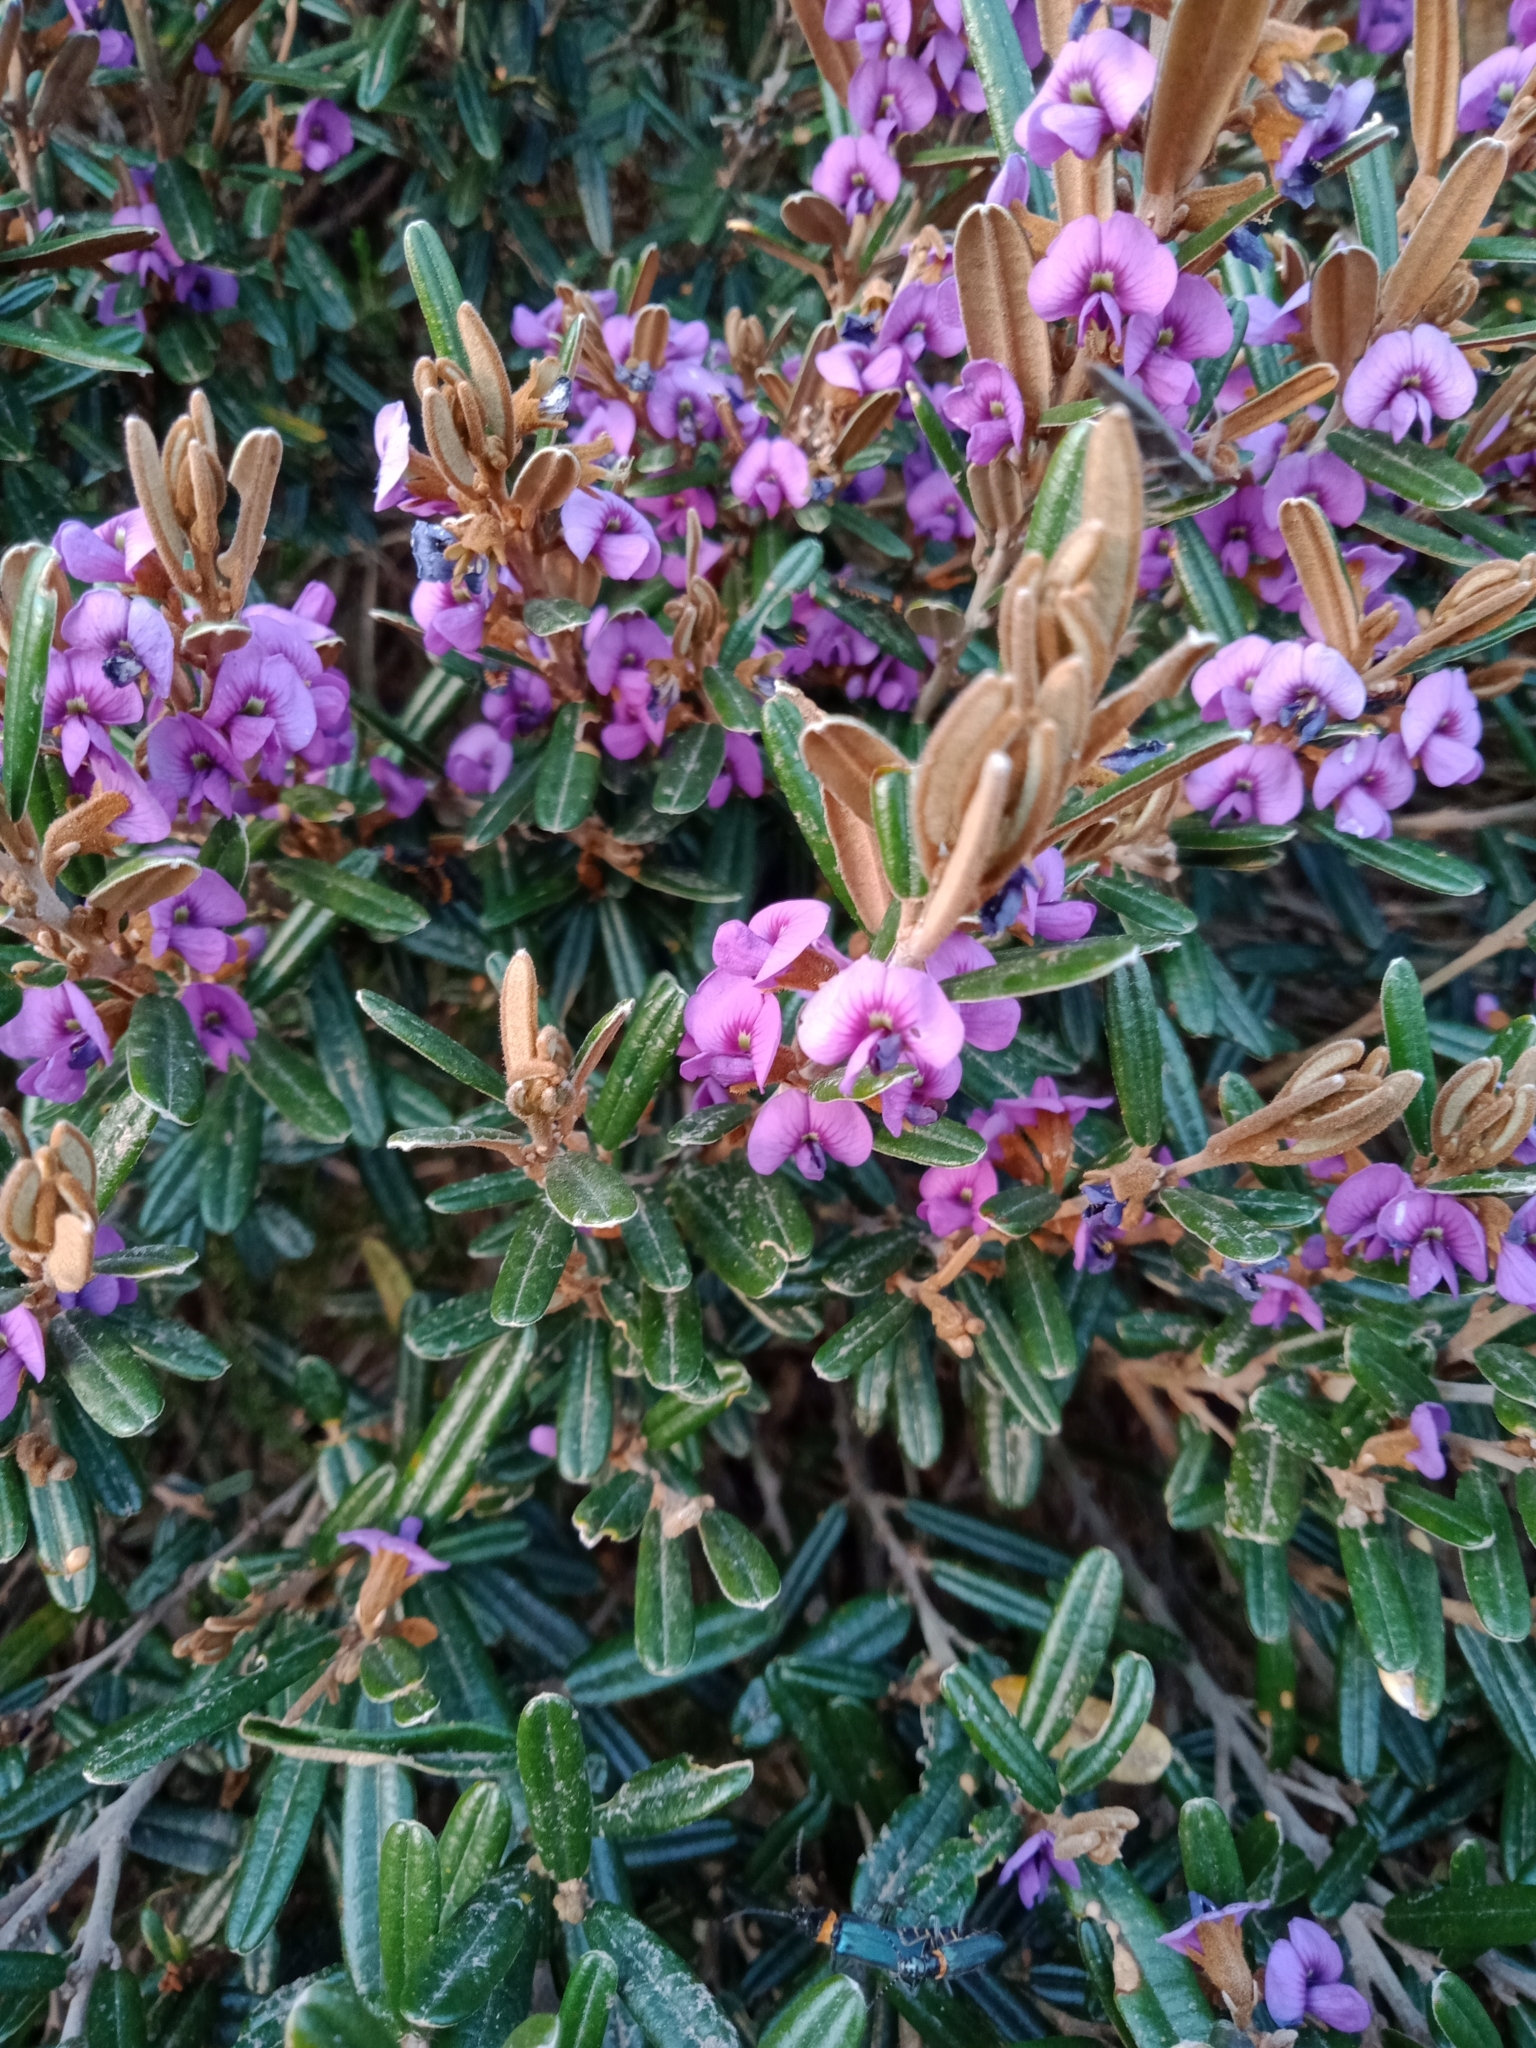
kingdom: Plantae
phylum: Tracheophyta
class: Magnoliopsida
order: Fabales
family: Fabaceae
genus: Hovea
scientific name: Hovea montana
